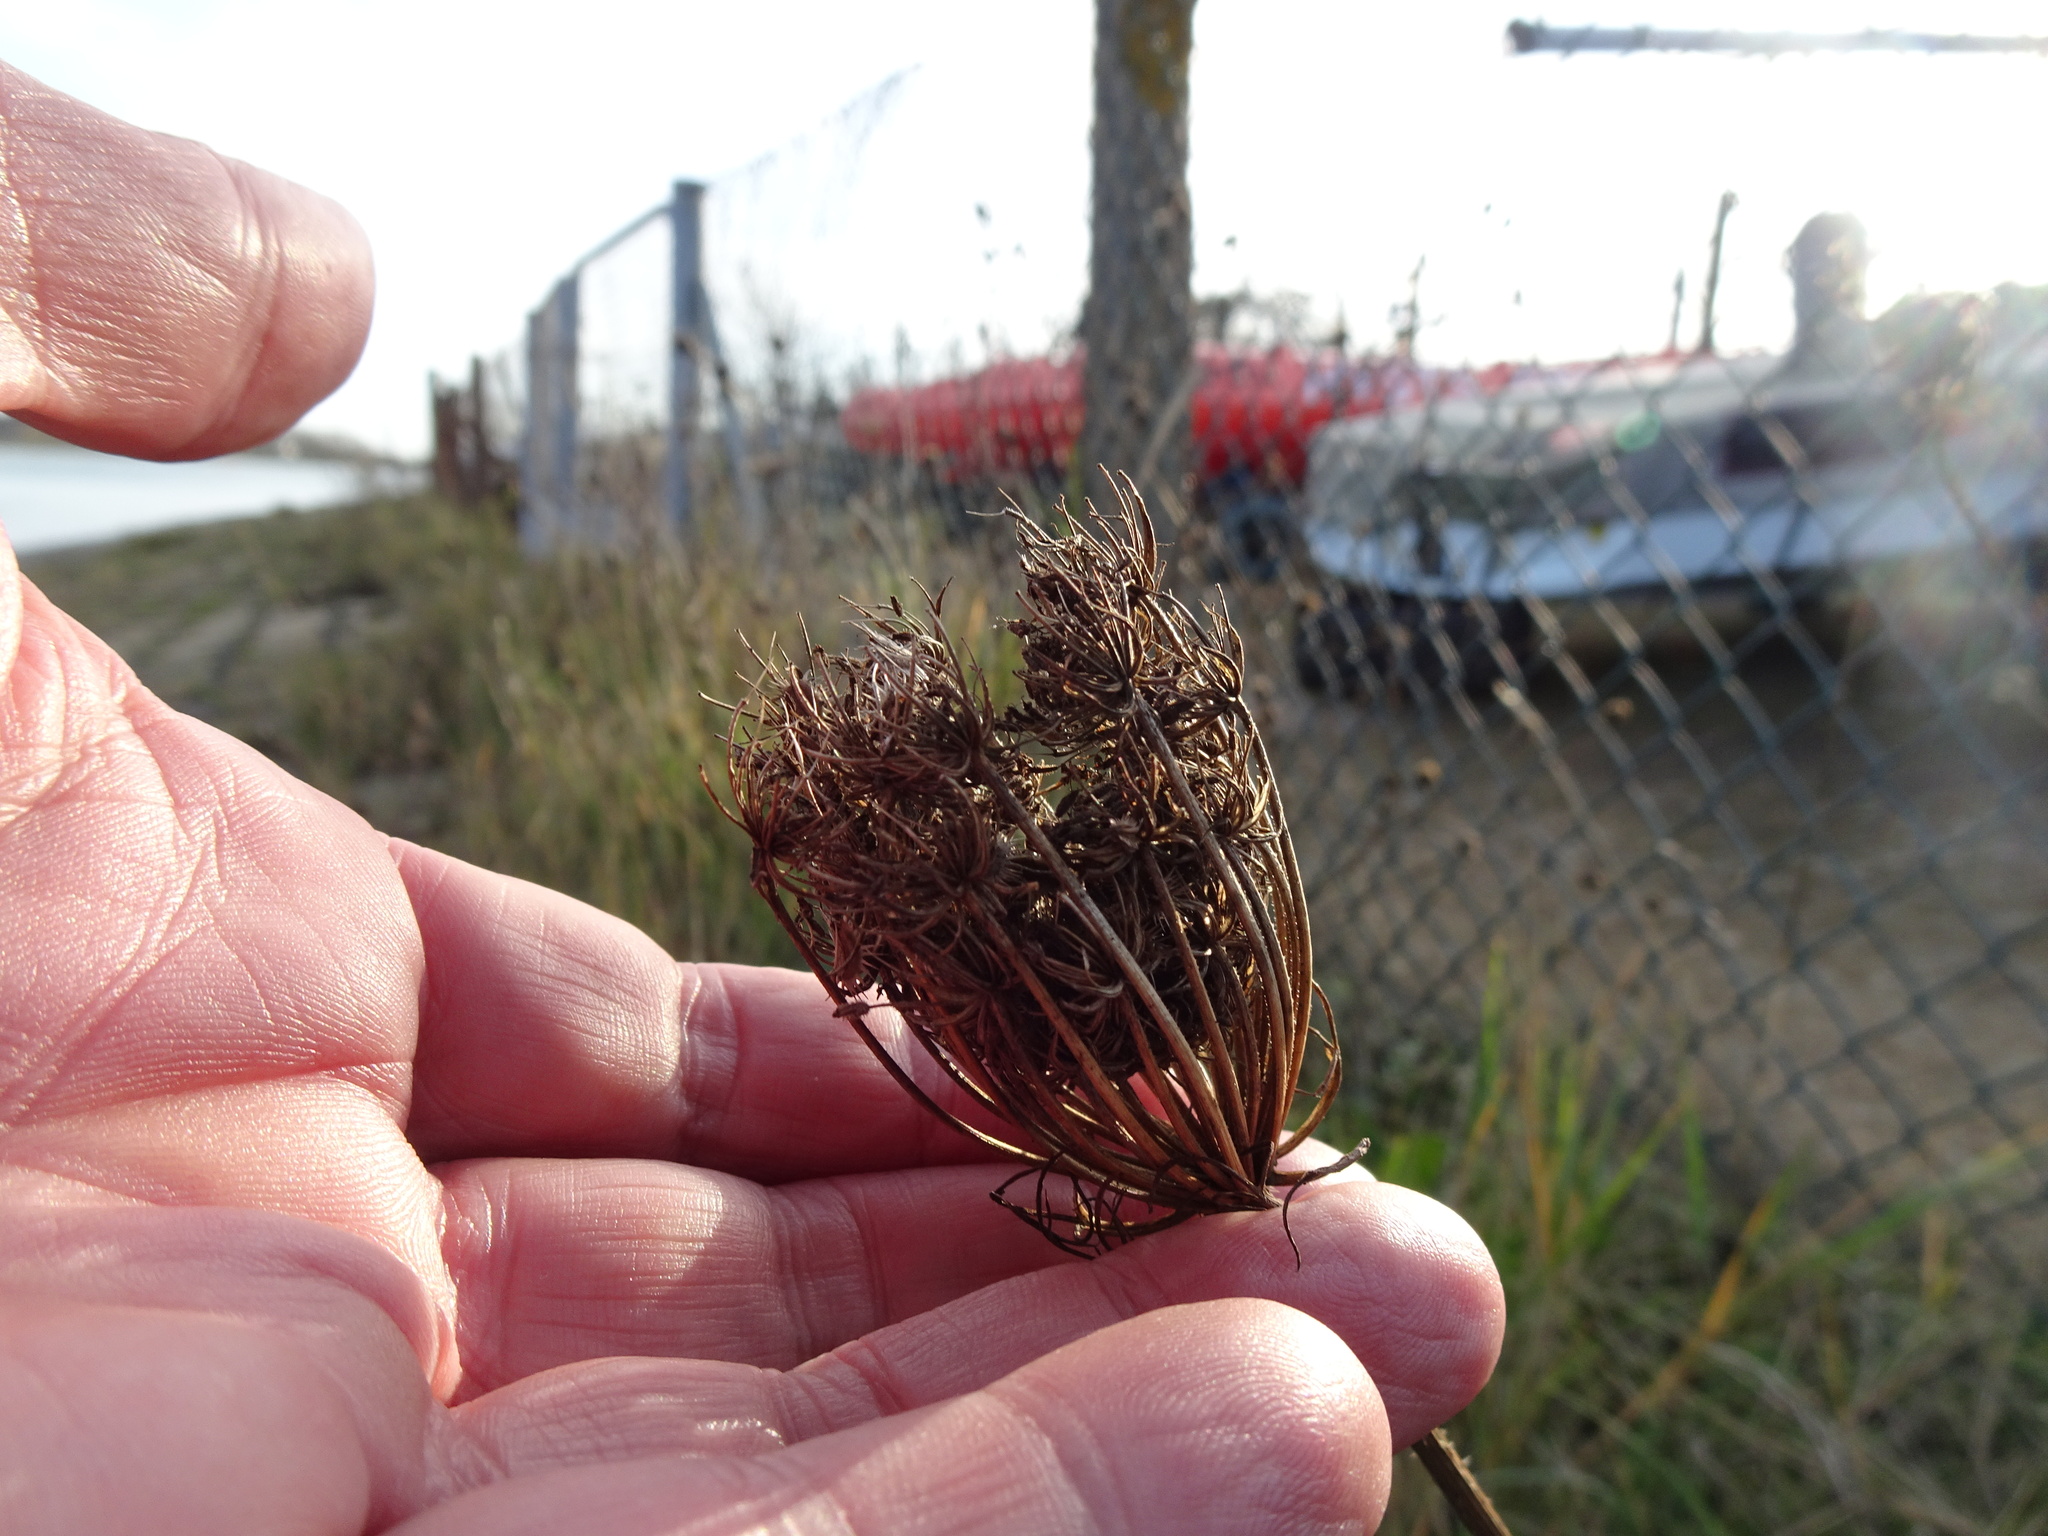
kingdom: Plantae
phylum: Tracheophyta
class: Magnoliopsida
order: Apiales
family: Apiaceae
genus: Daucus
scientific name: Daucus carota
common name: Wild carrot
